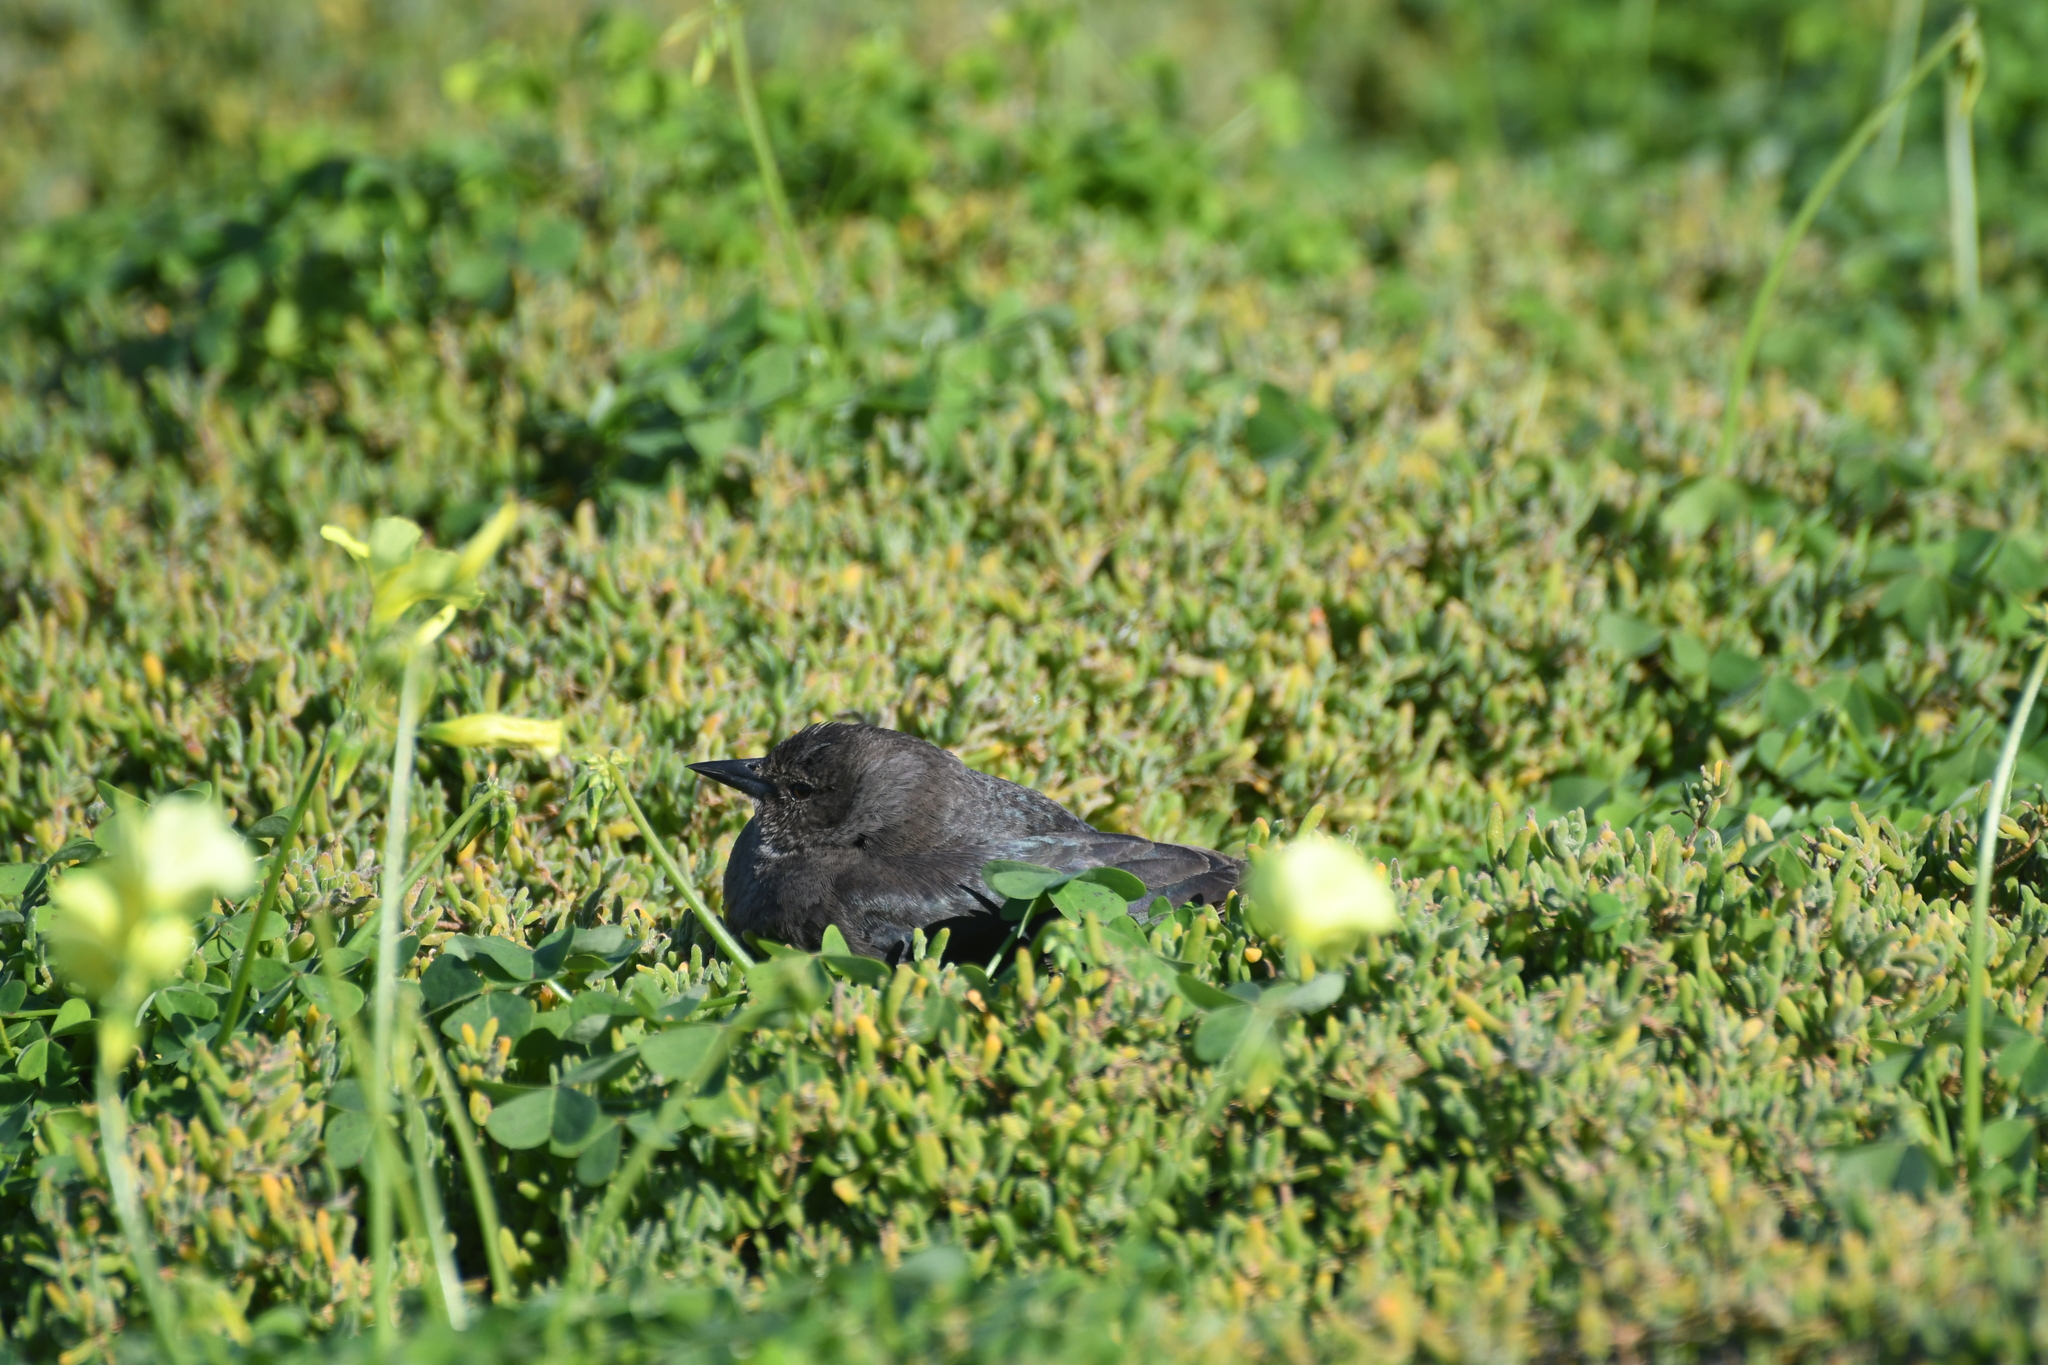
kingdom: Animalia
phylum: Chordata
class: Aves
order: Passeriformes
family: Icteridae
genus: Euphagus
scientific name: Euphagus cyanocephalus
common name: Brewer's blackbird
